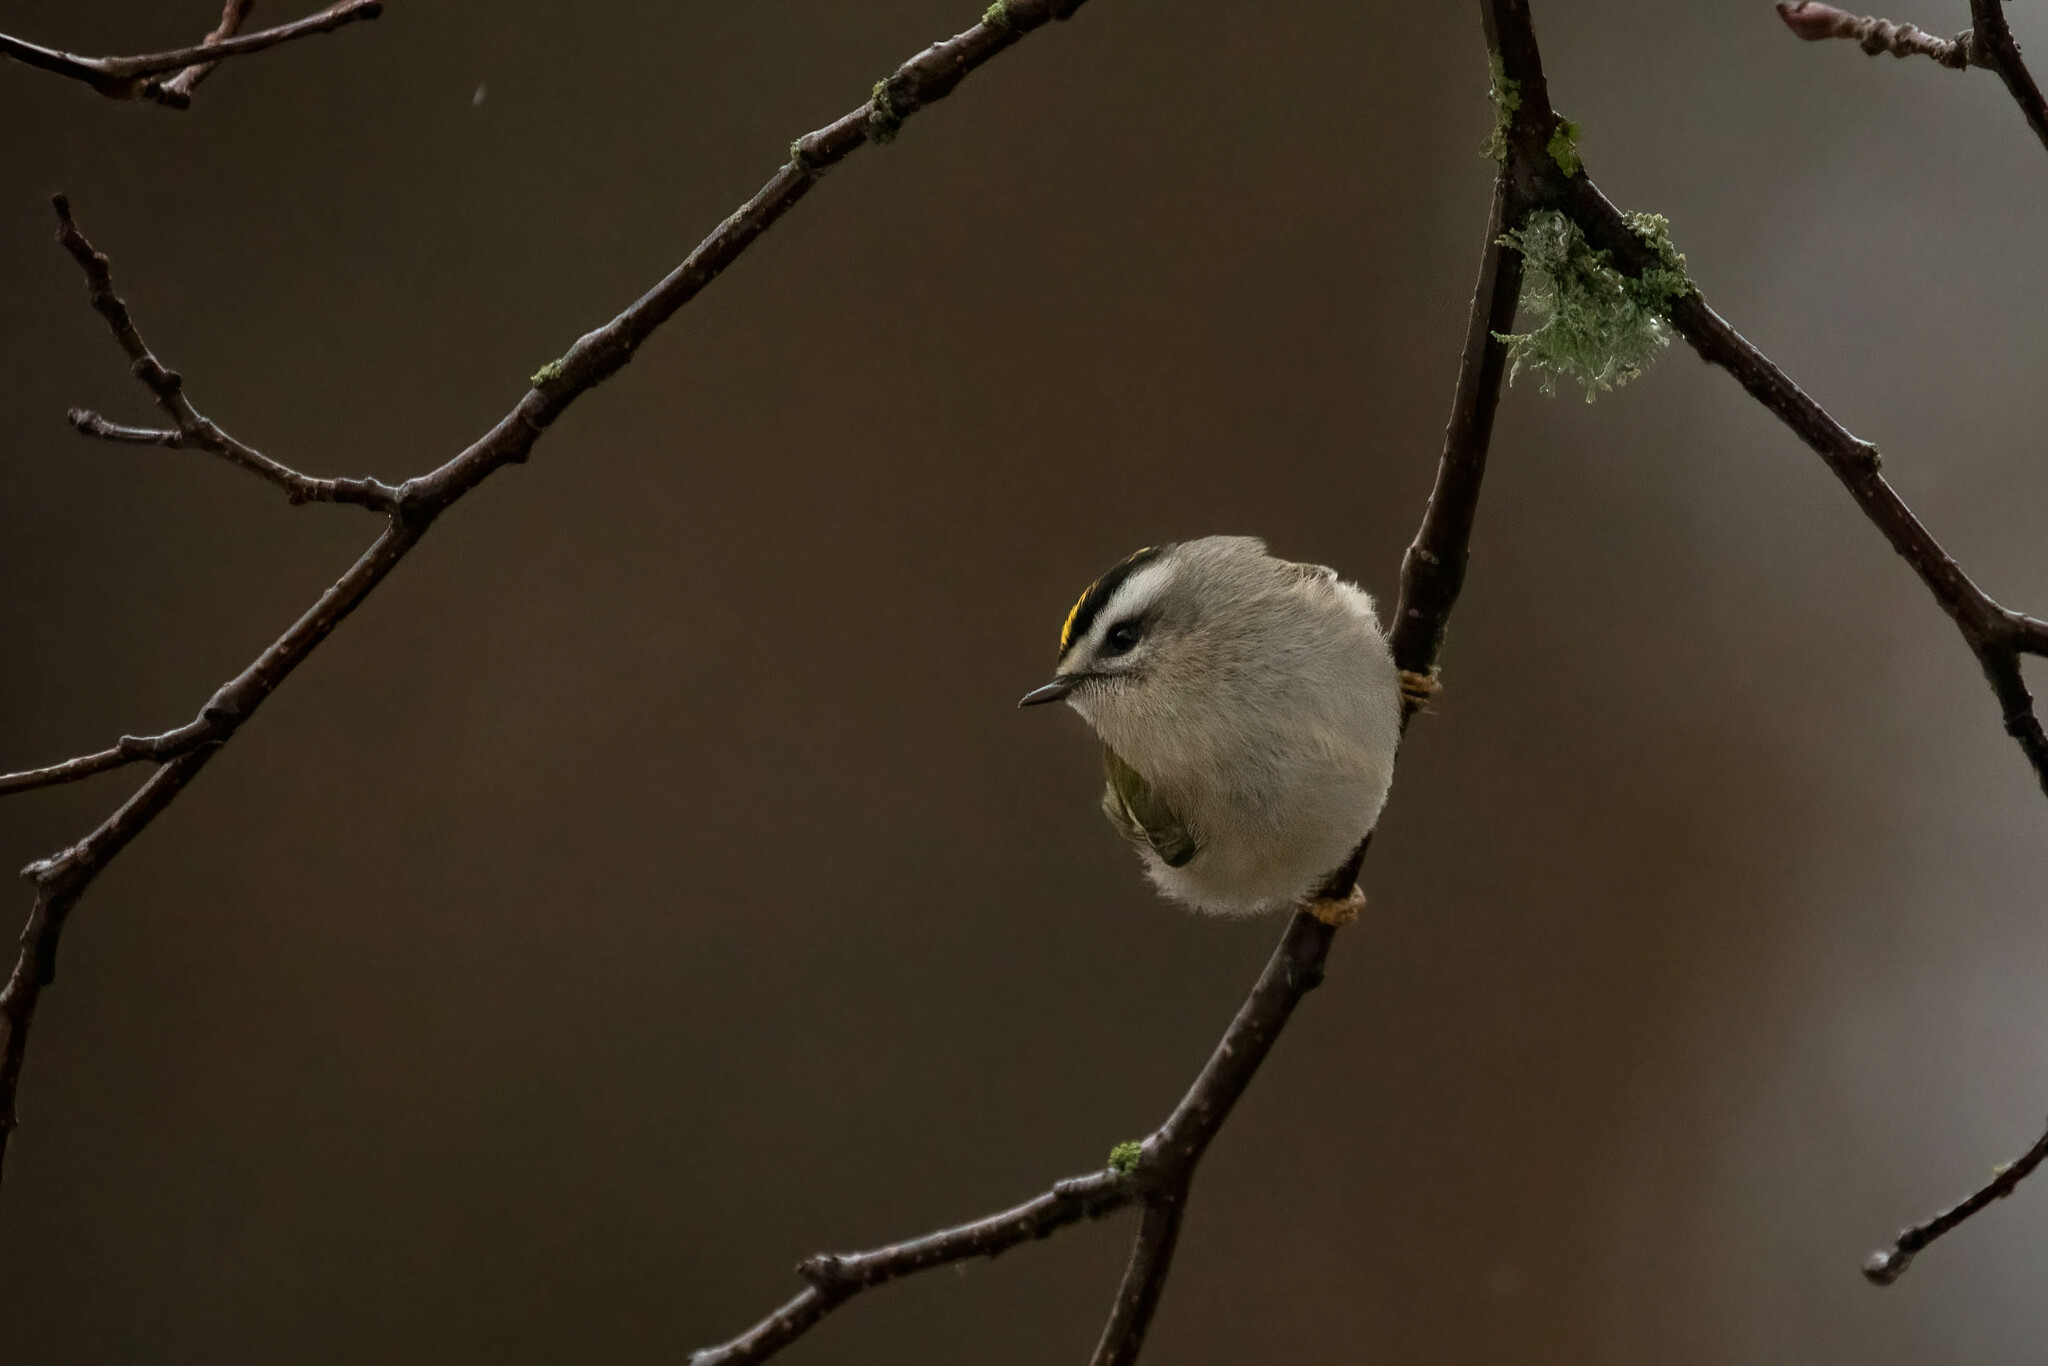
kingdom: Animalia
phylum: Chordata
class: Aves
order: Passeriformes
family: Regulidae
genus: Regulus
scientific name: Regulus satrapa
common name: Golden-crowned kinglet
